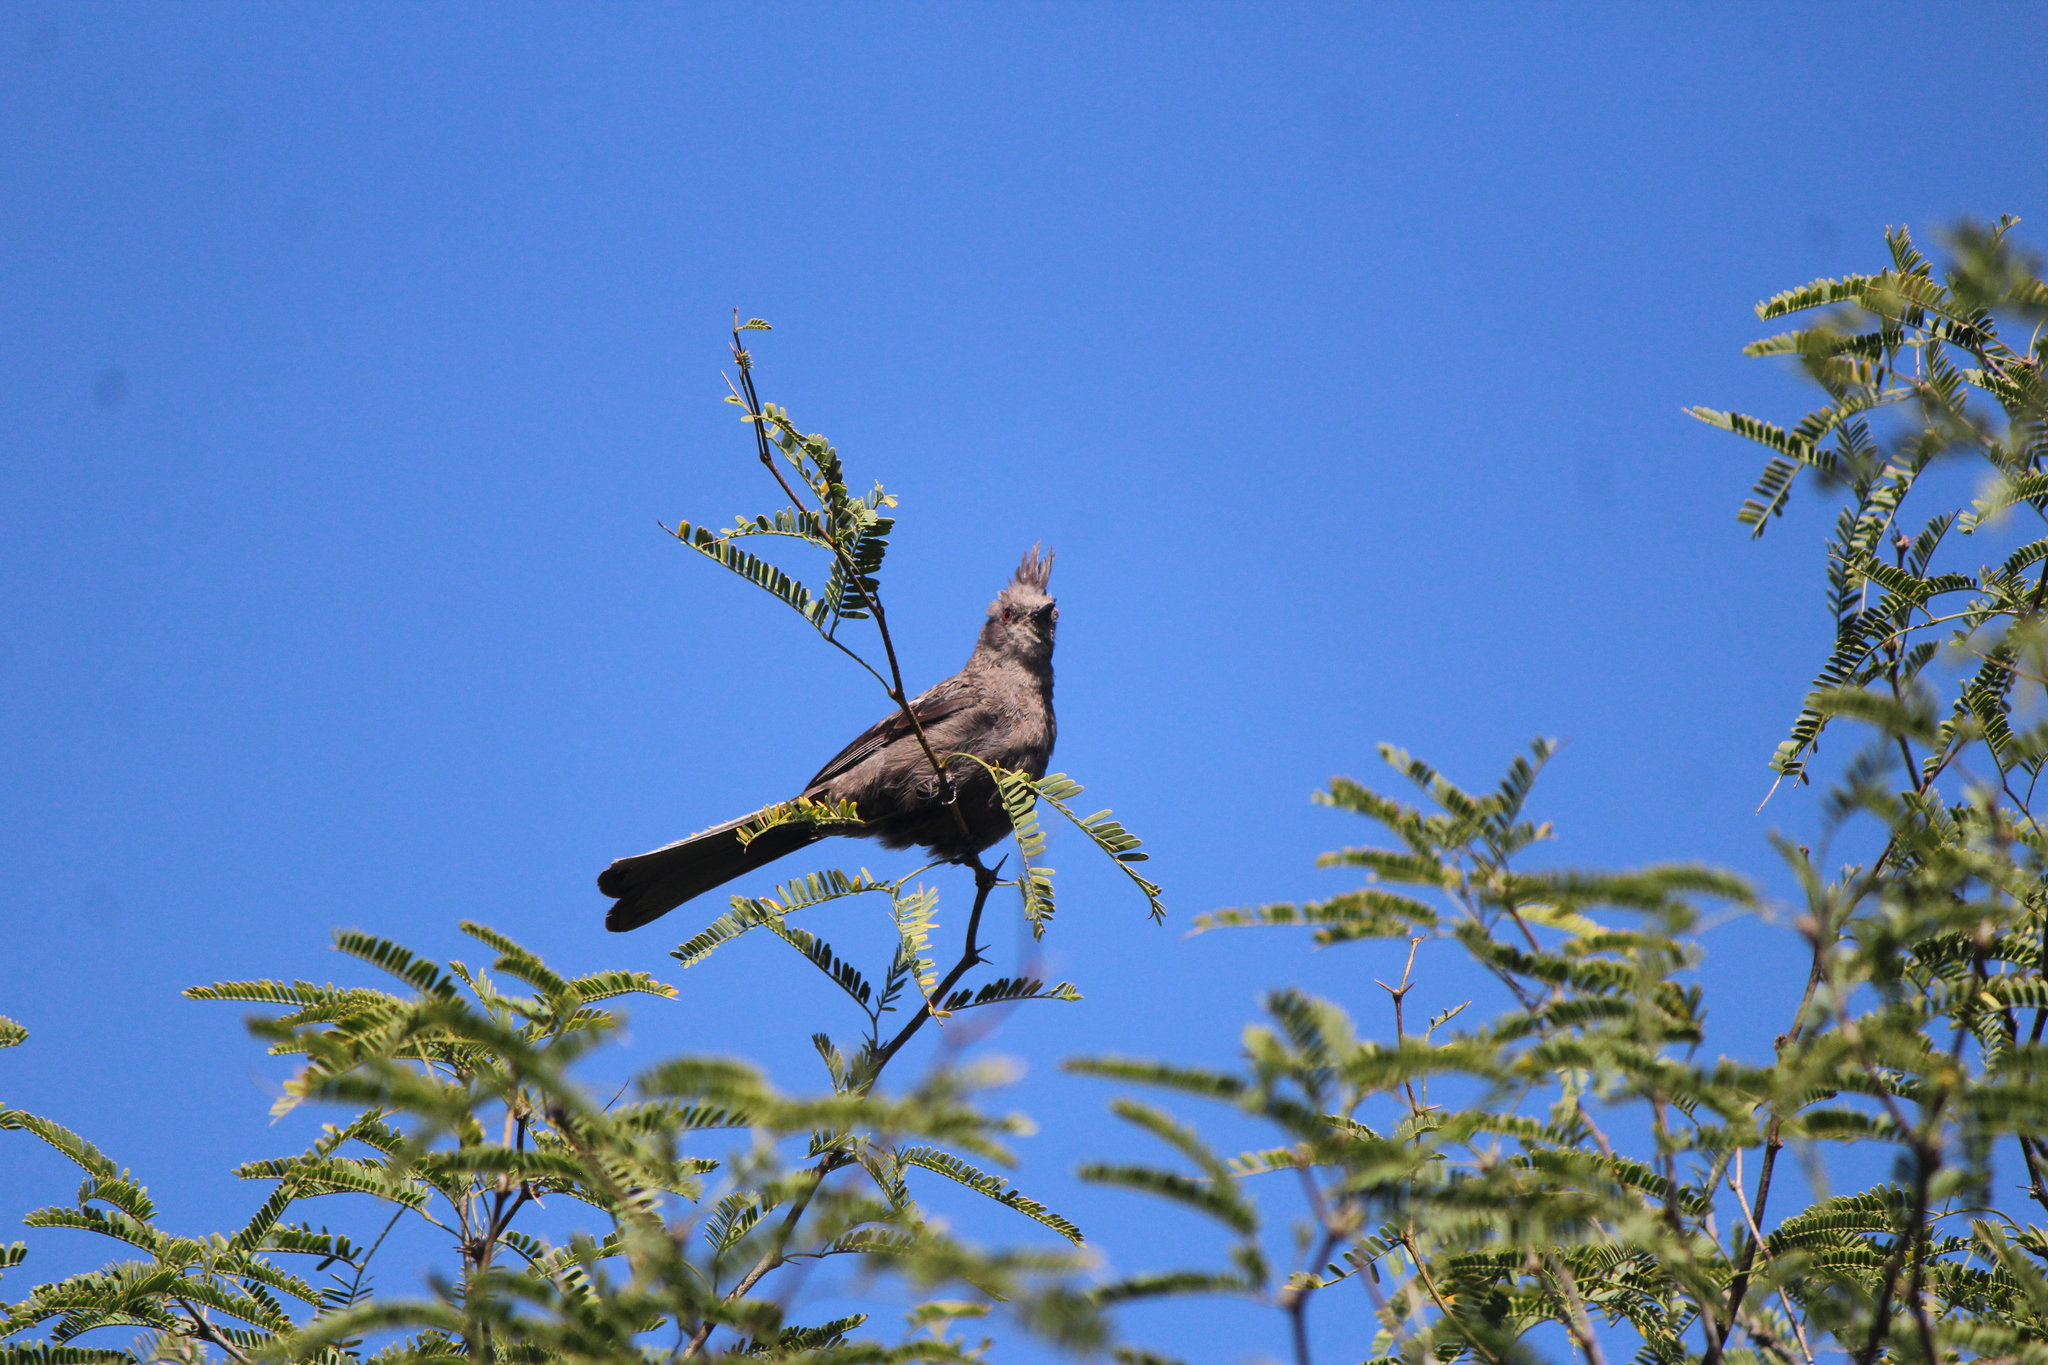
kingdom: Animalia
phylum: Chordata
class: Aves
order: Passeriformes
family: Ptilogonatidae
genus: Phainopepla
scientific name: Phainopepla nitens
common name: Phainopepla
